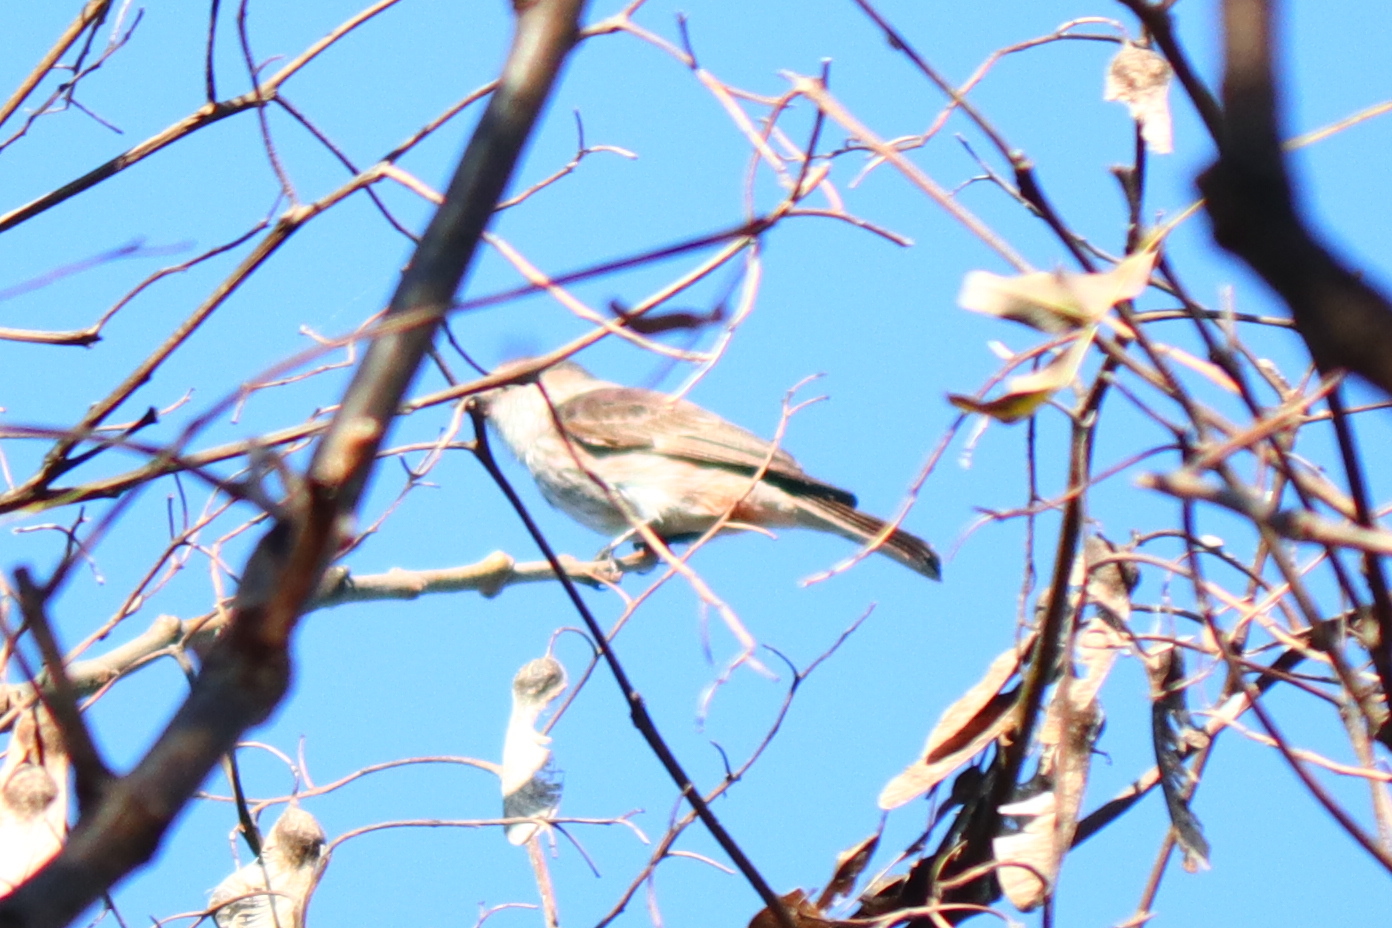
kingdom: Animalia
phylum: Chordata
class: Aves
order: Passeriformes
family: Tyrannidae
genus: Pyrocephalus
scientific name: Pyrocephalus rubinus
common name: Vermilion flycatcher
